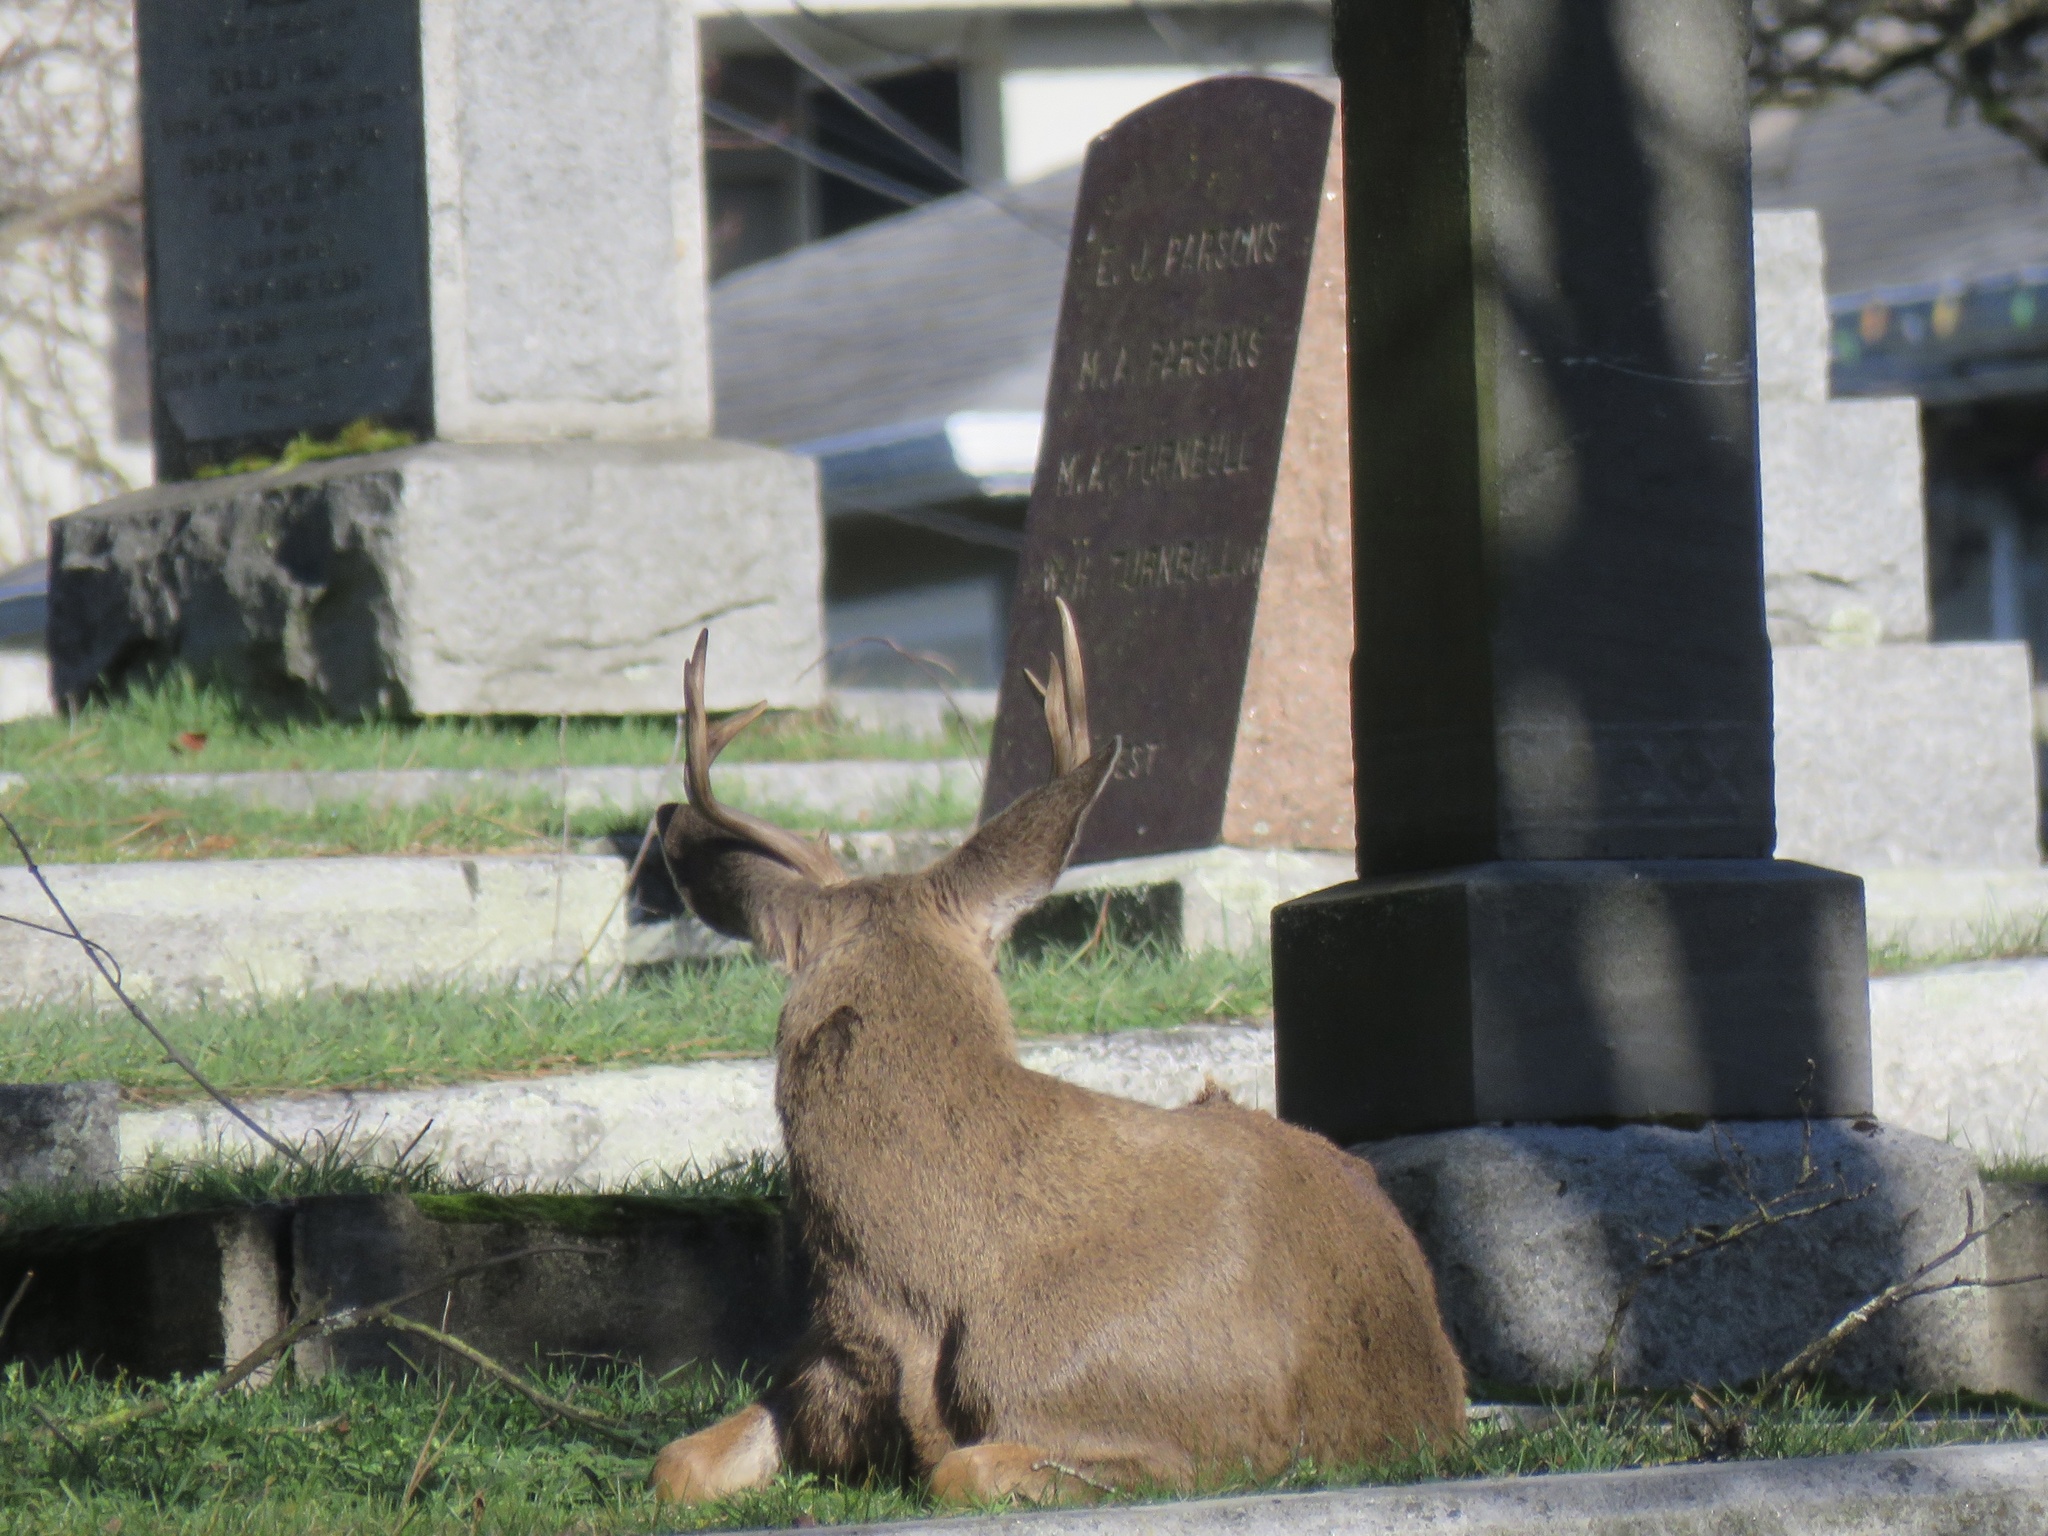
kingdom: Animalia
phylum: Chordata
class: Mammalia
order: Artiodactyla
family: Cervidae
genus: Odocoileus
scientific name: Odocoileus hemionus
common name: Mule deer
